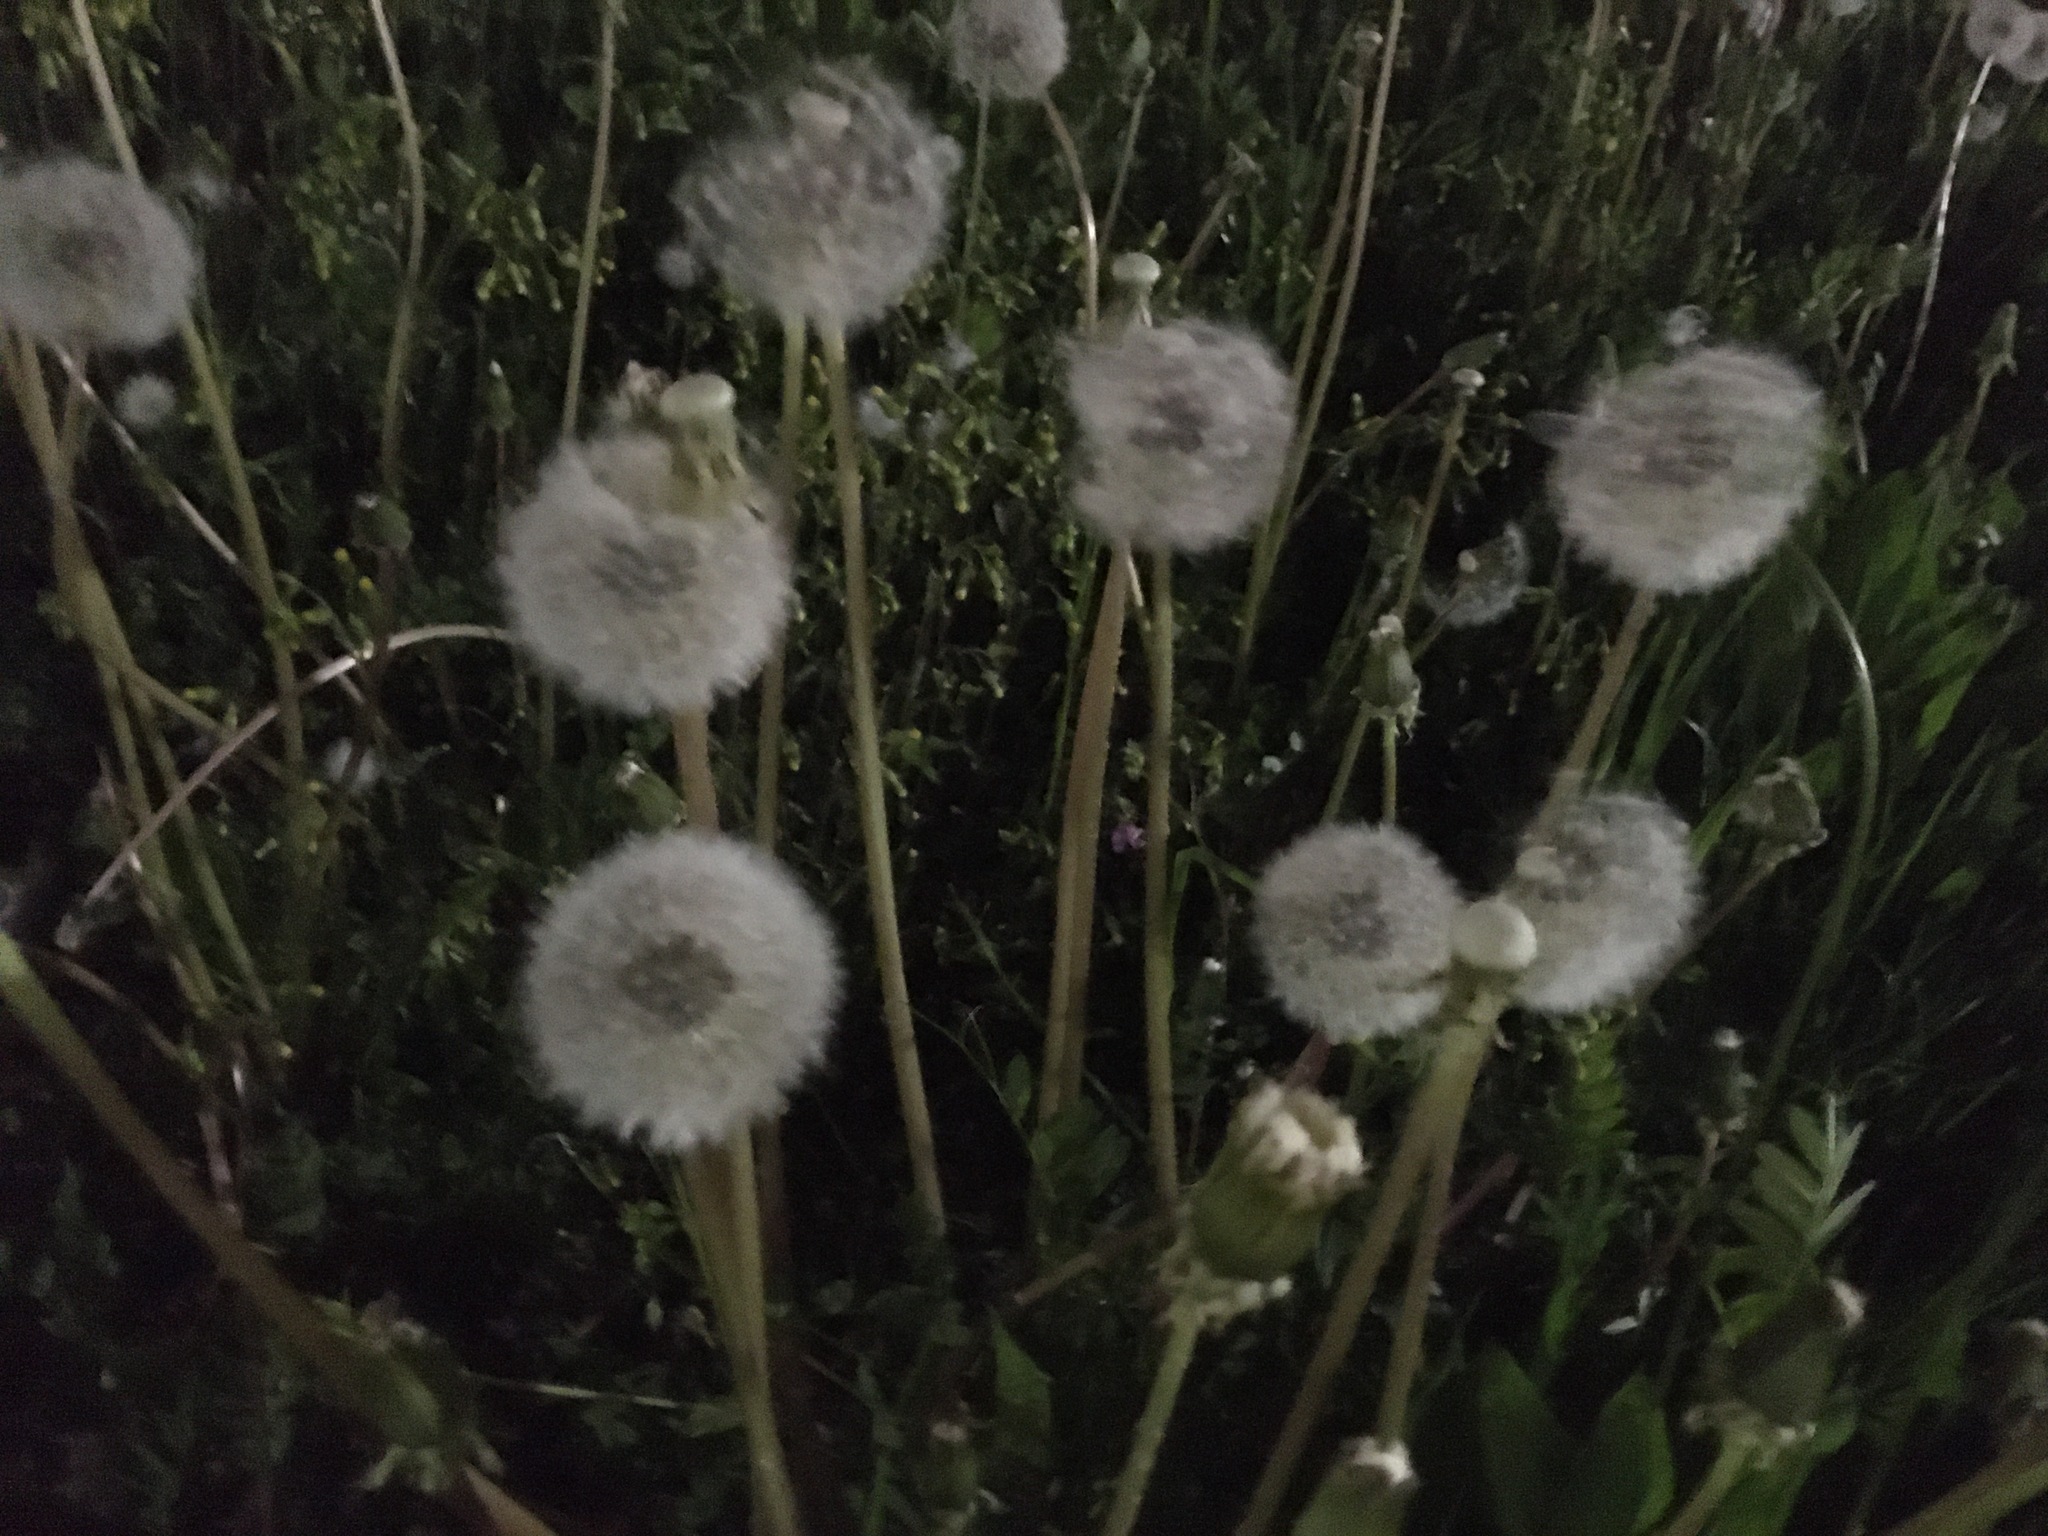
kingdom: Plantae
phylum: Tracheophyta
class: Magnoliopsida
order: Asterales
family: Asteraceae
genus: Taraxacum
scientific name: Taraxacum officinale
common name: Common dandelion
